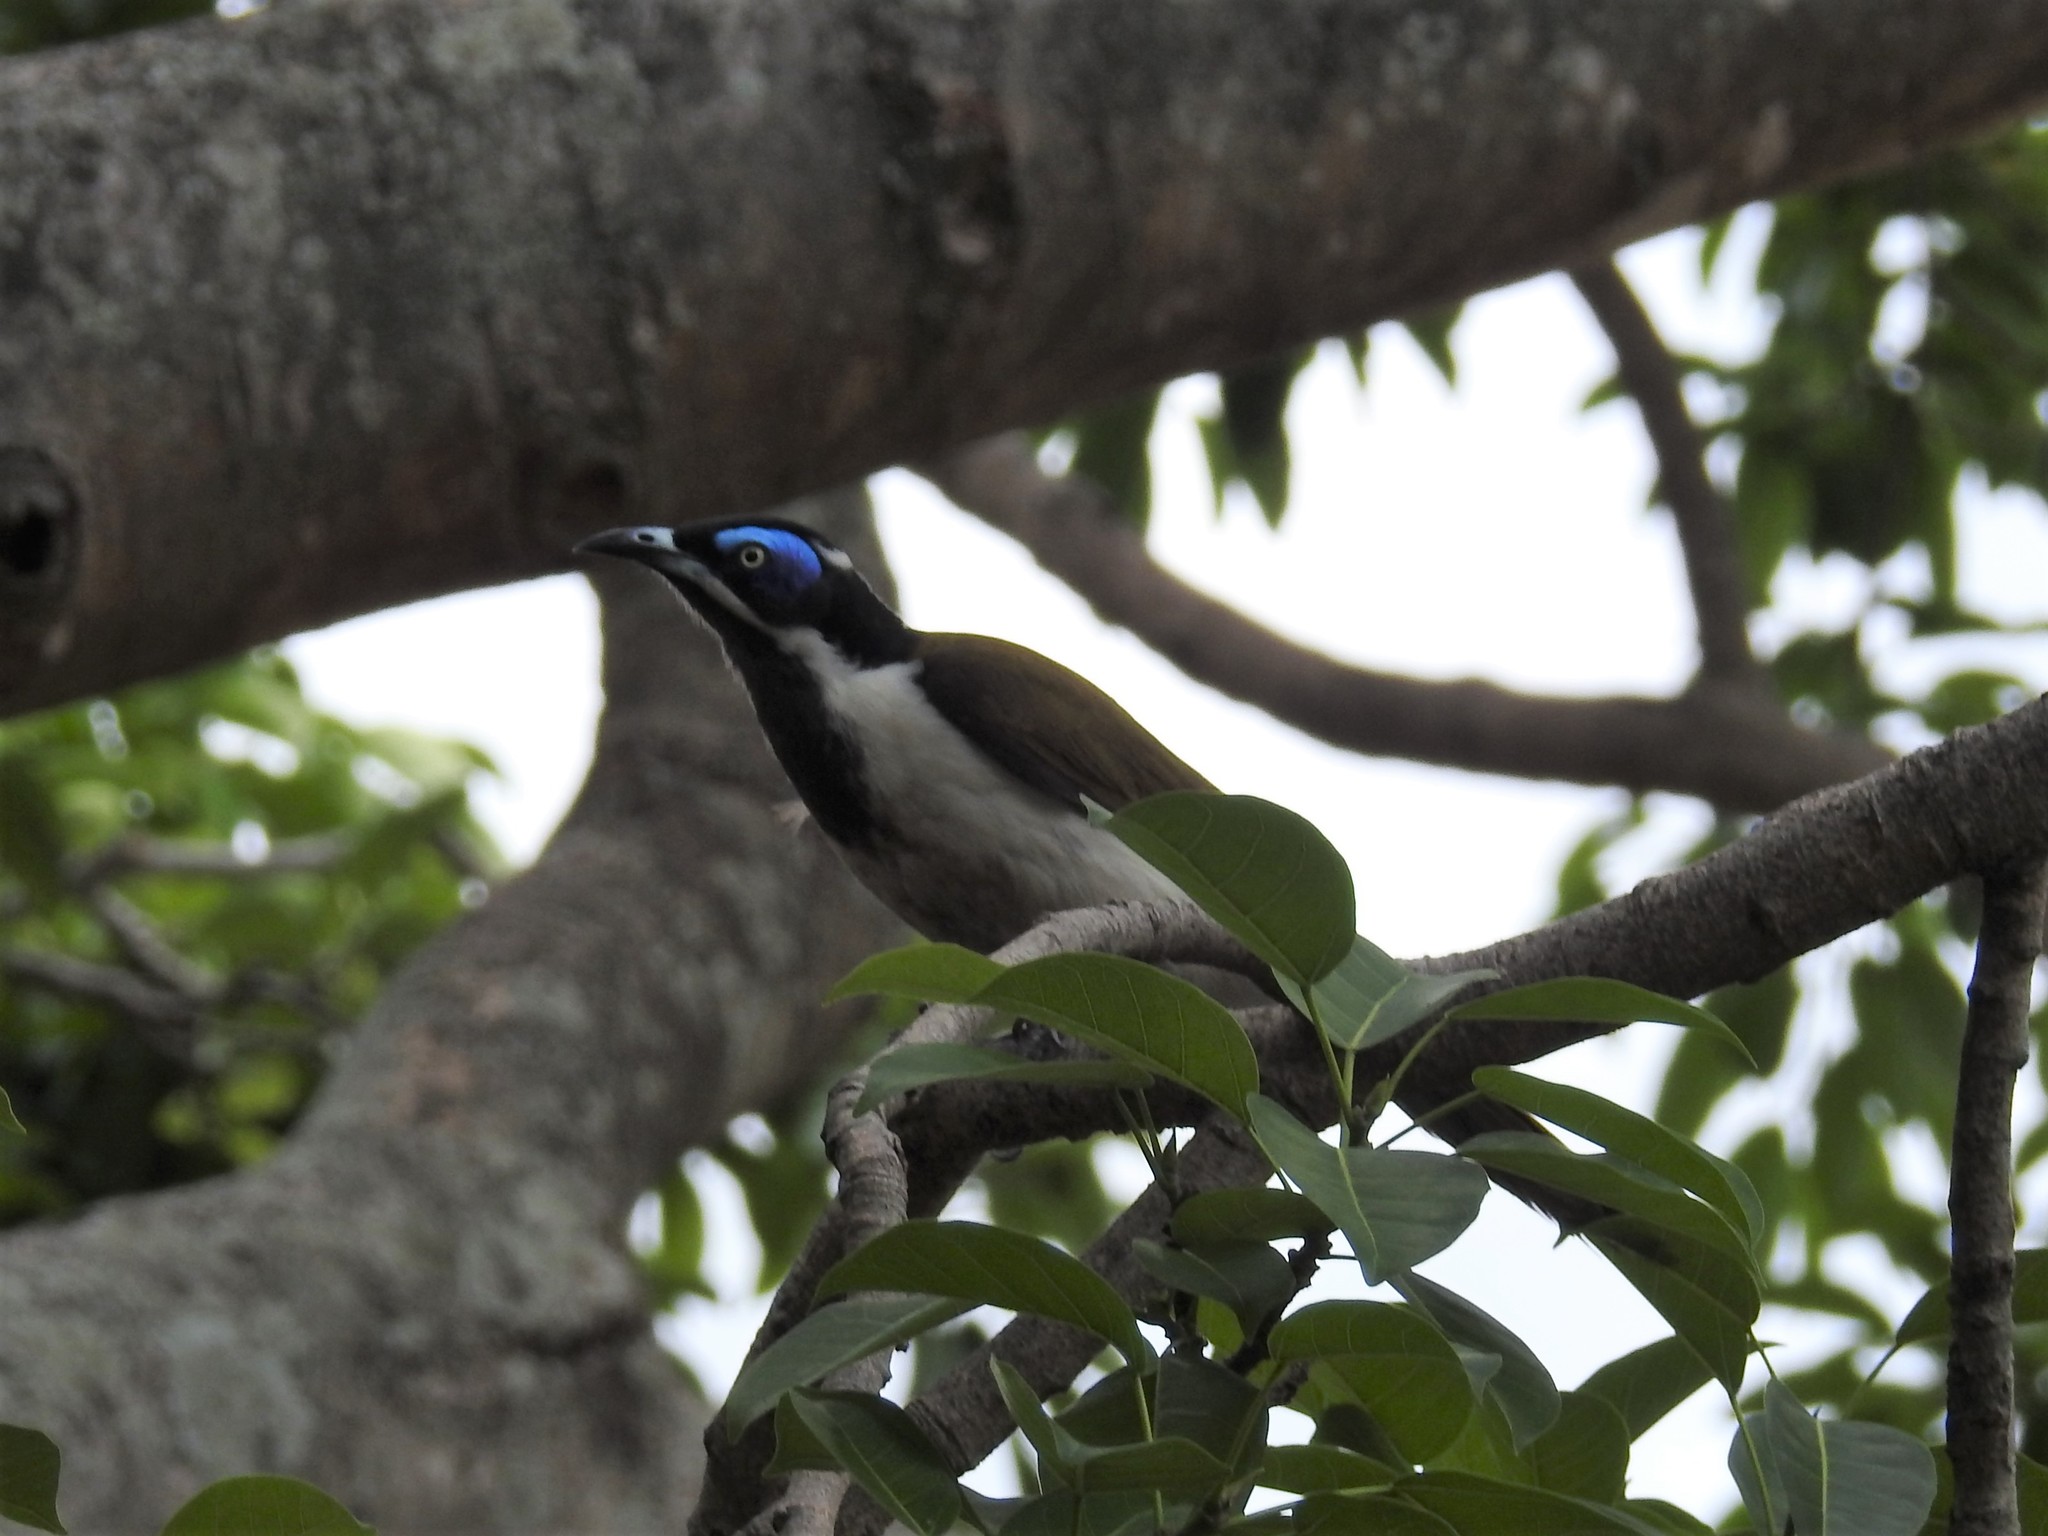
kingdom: Animalia
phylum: Chordata
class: Aves
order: Passeriformes
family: Meliphagidae
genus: Entomyzon
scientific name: Entomyzon cyanotis
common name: Blue-faced honeyeater
